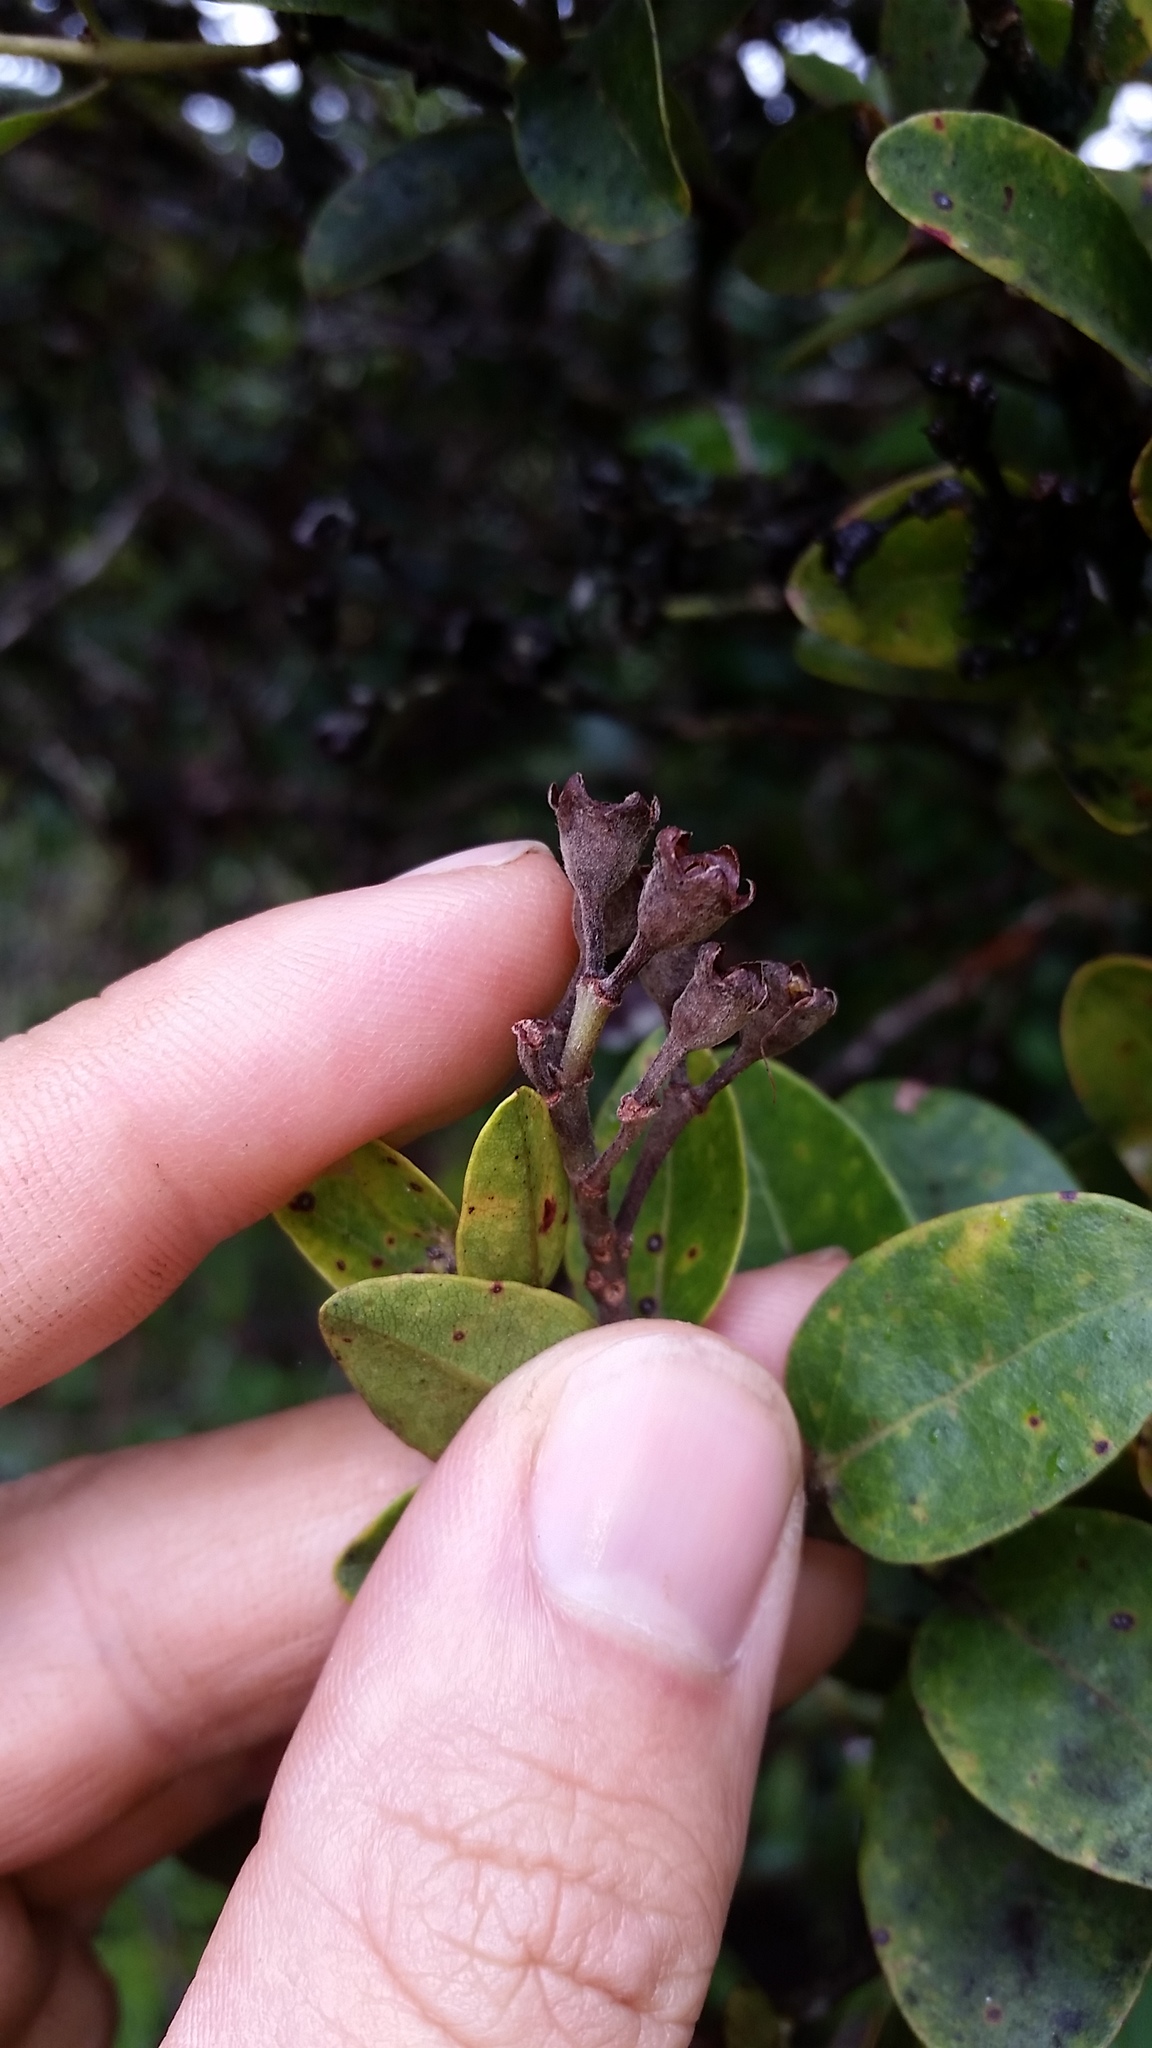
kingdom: Plantae
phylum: Tracheophyta
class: Magnoliopsida
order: Myrtales
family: Myrtaceae
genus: Metrosideros
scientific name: Metrosideros polymorpha
